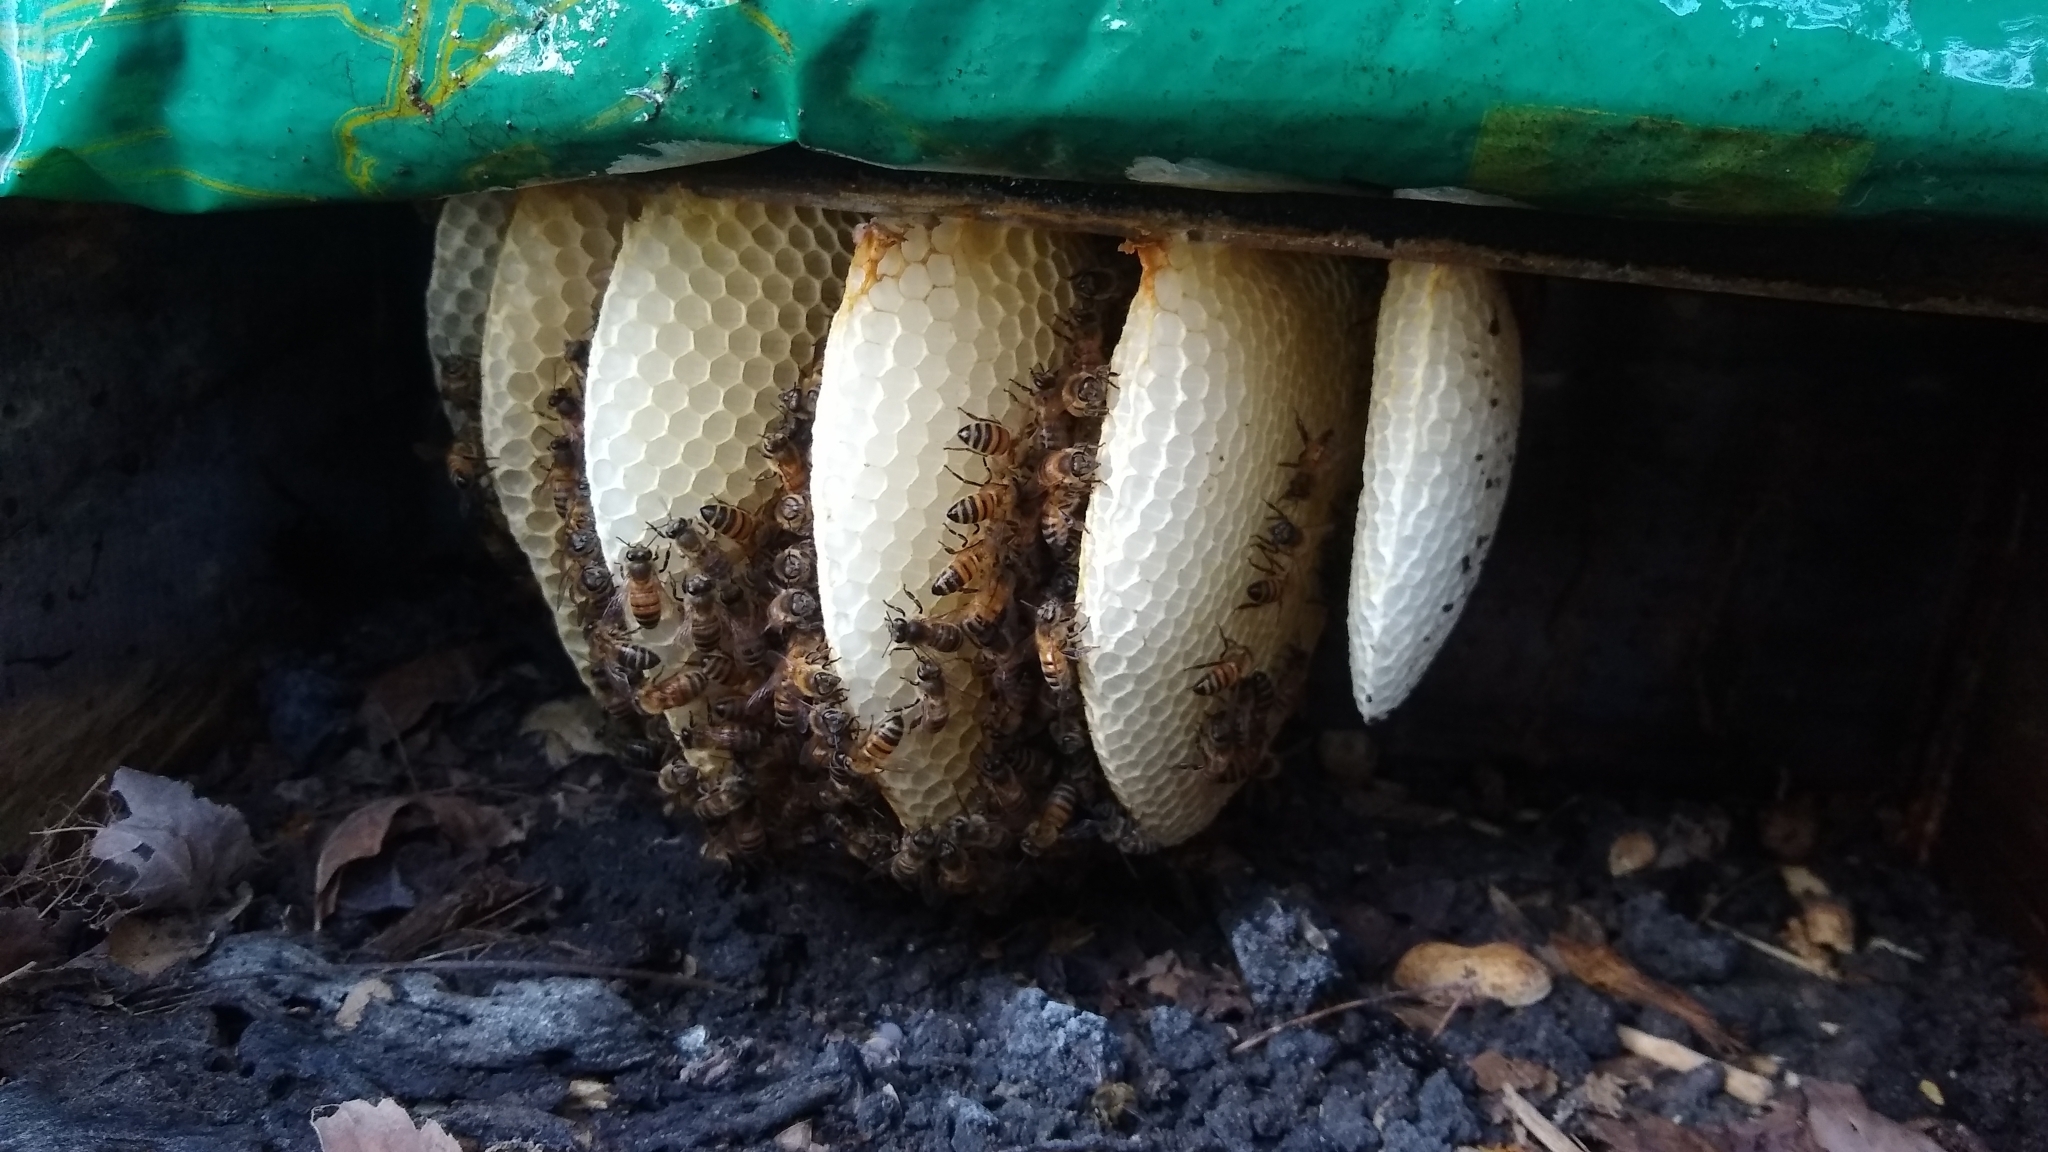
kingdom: Animalia
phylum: Arthropoda
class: Insecta
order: Hymenoptera
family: Apidae
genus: Apis
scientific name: Apis mellifera
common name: Honey bee
